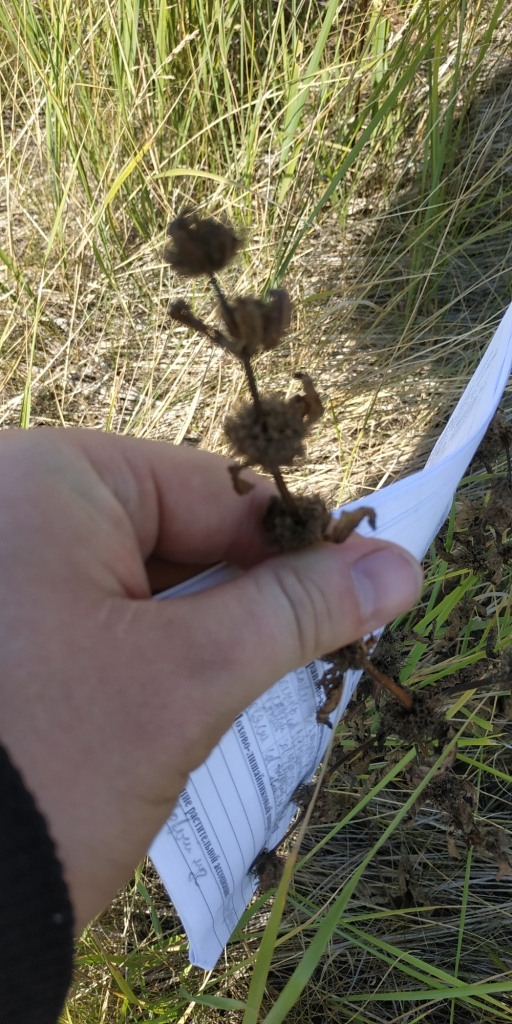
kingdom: Plantae
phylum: Tracheophyta
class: Magnoliopsida
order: Lamiales
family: Lamiaceae
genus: Phlomoides
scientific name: Phlomoides tuberosa
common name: Tuberous jerusalem sage
